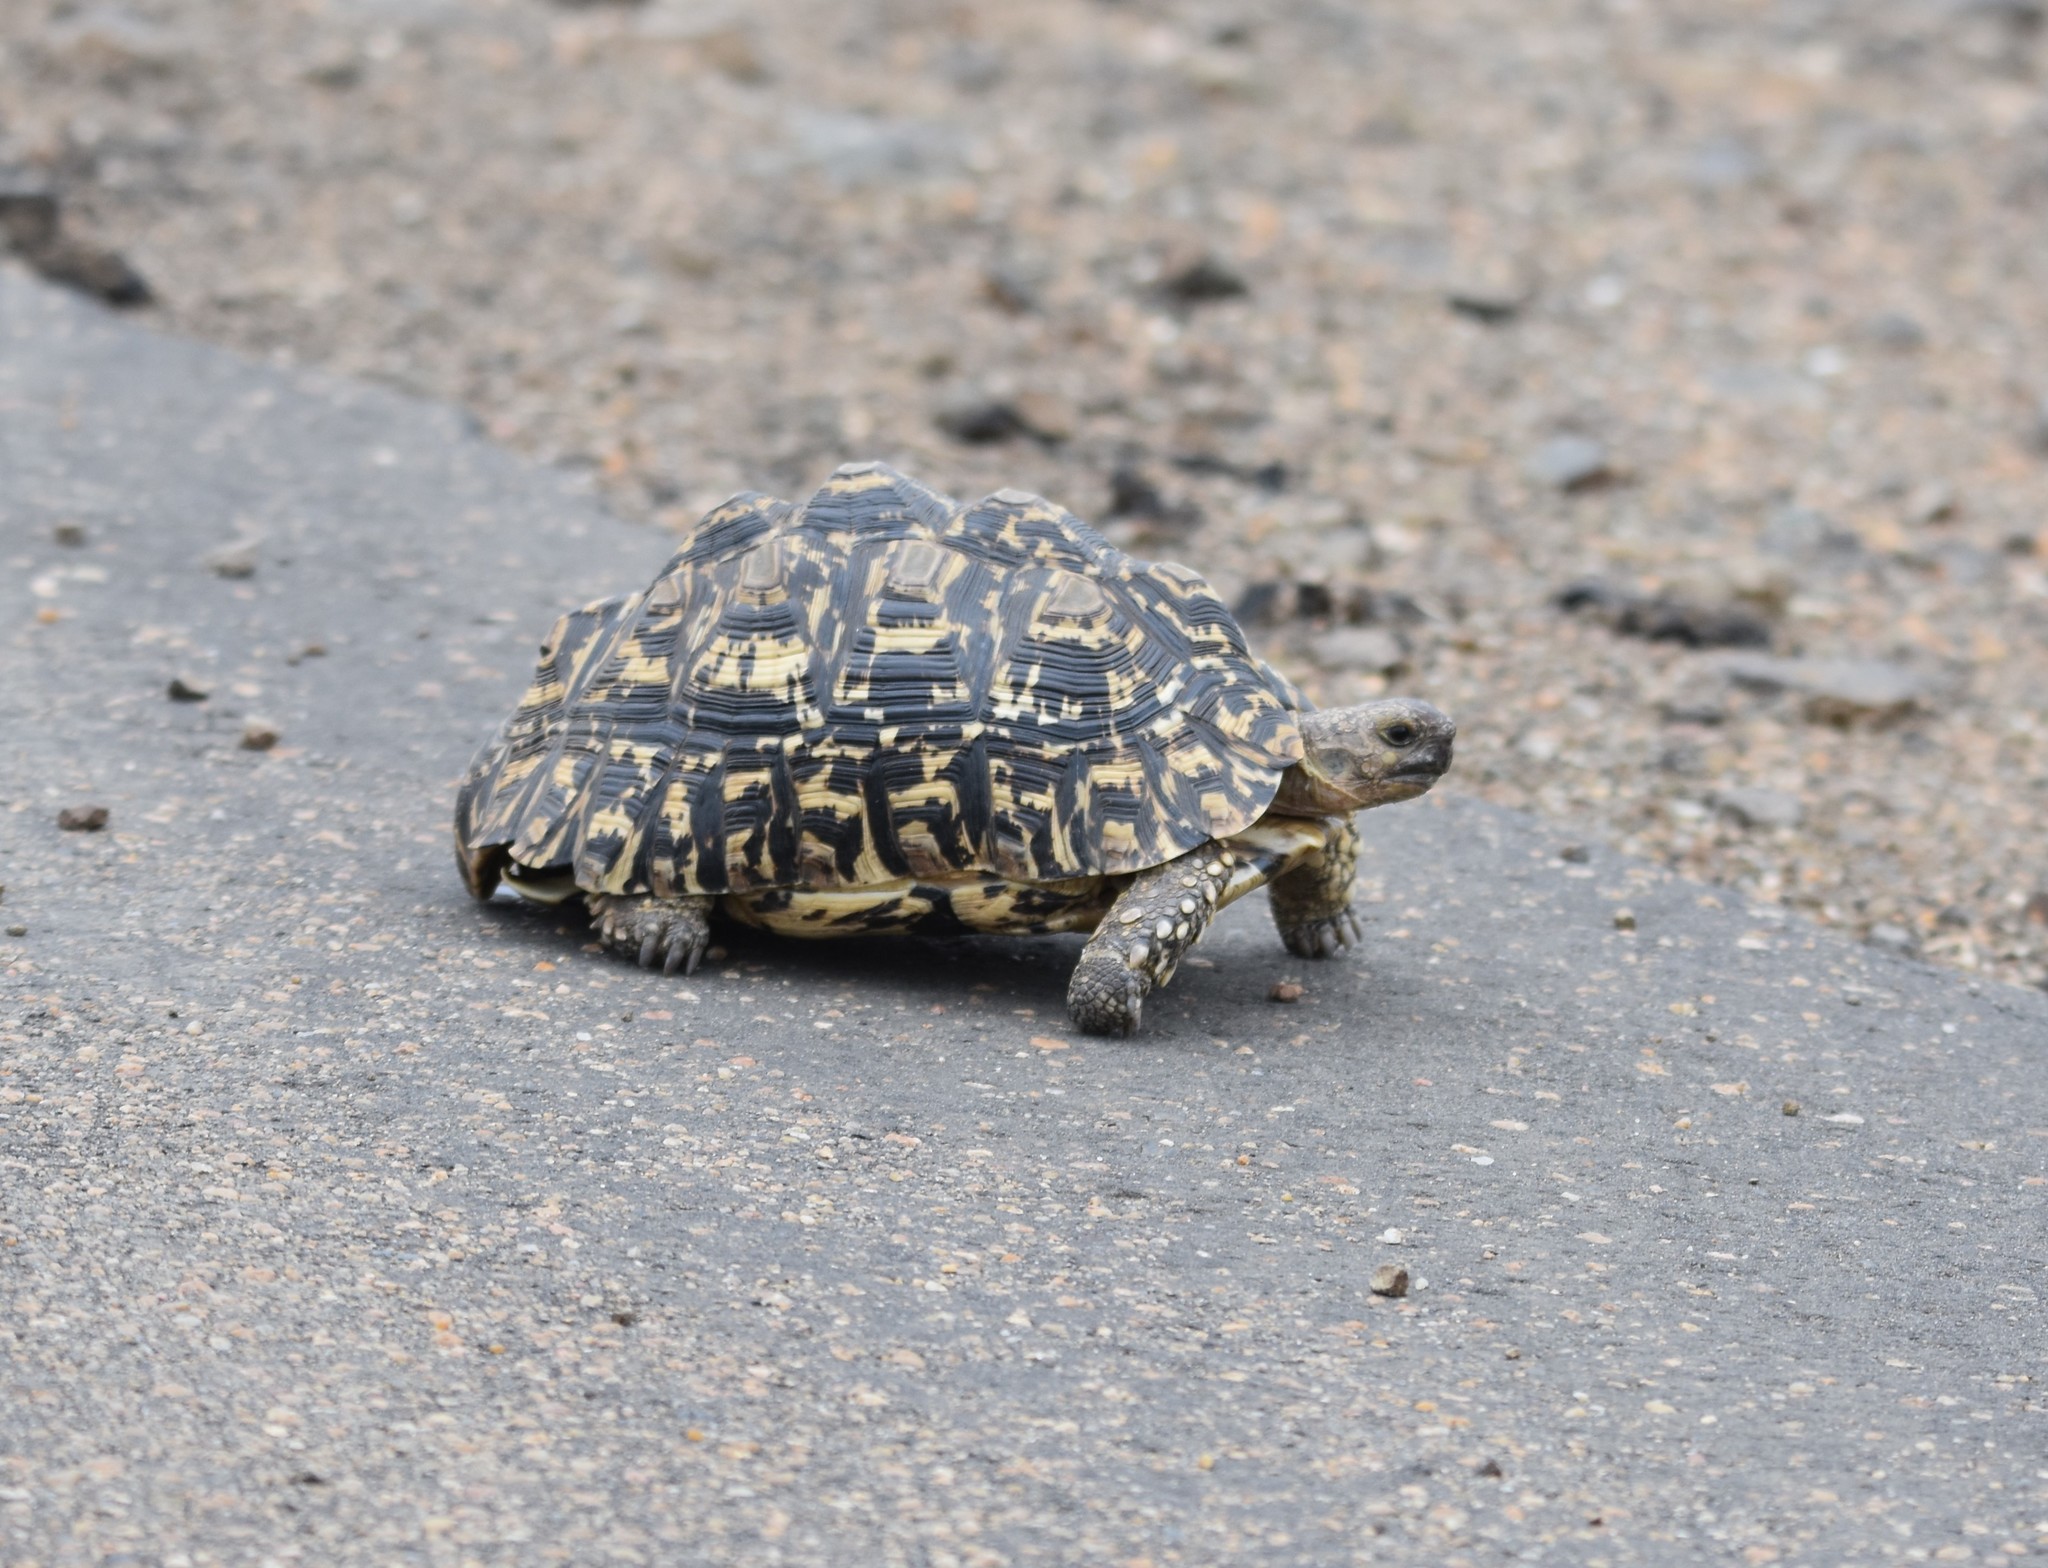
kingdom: Animalia
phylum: Chordata
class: Testudines
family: Testudinidae
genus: Stigmochelys
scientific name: Stigmochelys pardalis
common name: Leopard tortoise
